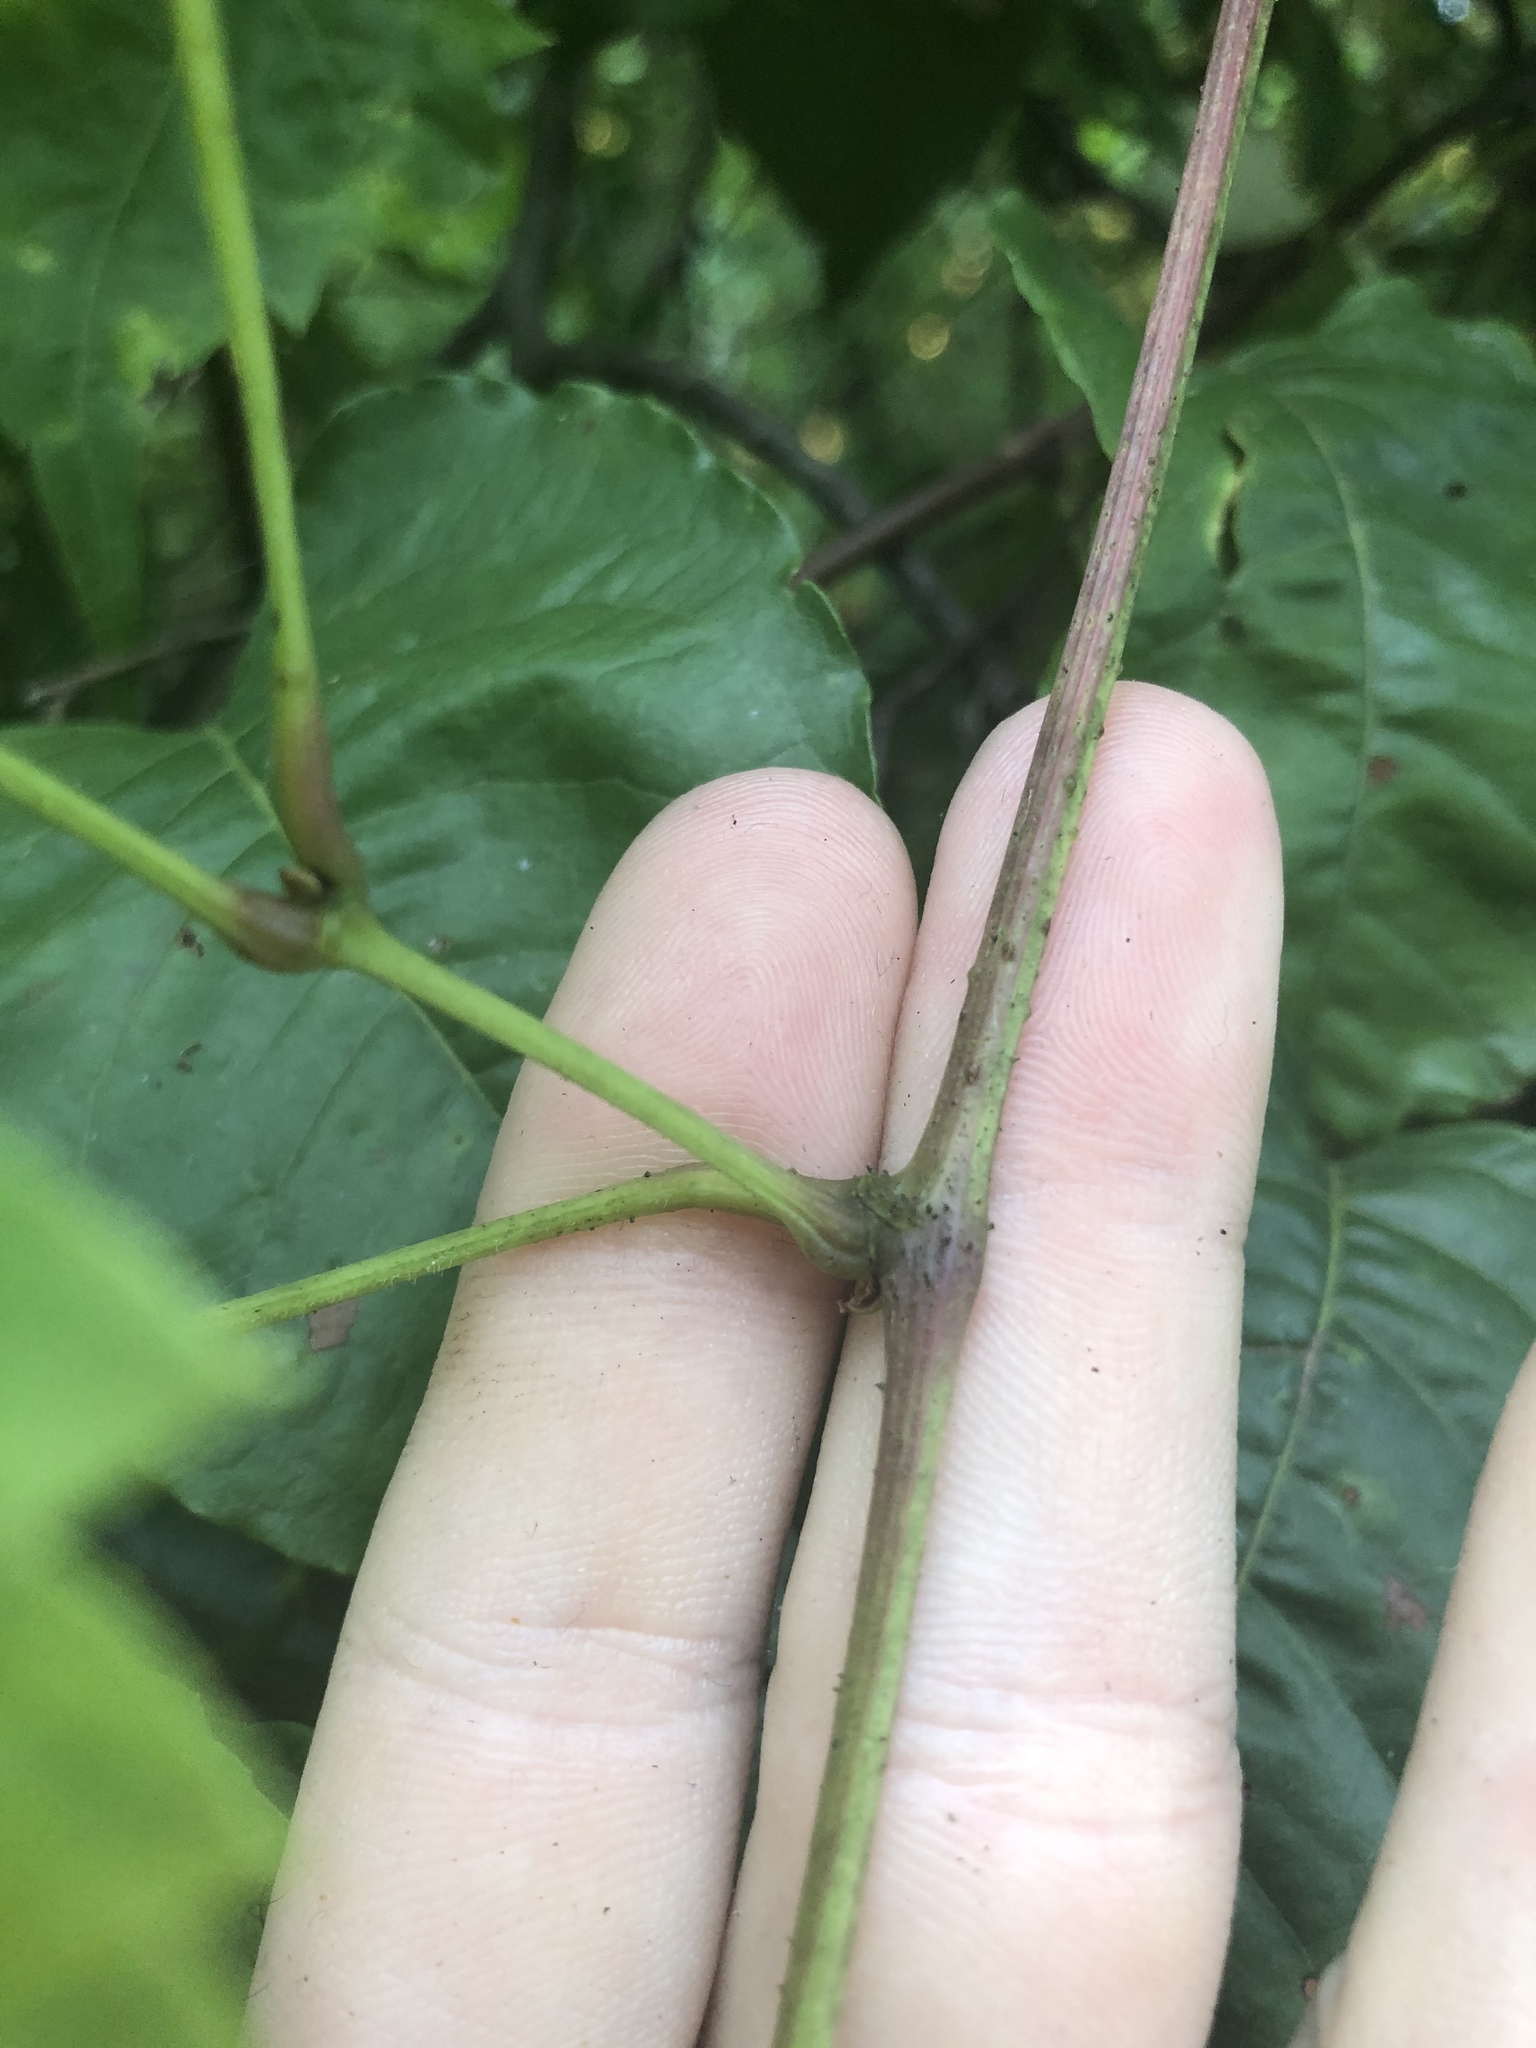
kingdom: Plantae
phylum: Tracheophyta
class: Magnoliopsida
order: Vitales
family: Vitaceae
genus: Vitis
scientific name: Vitis riparia
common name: Frost grape
